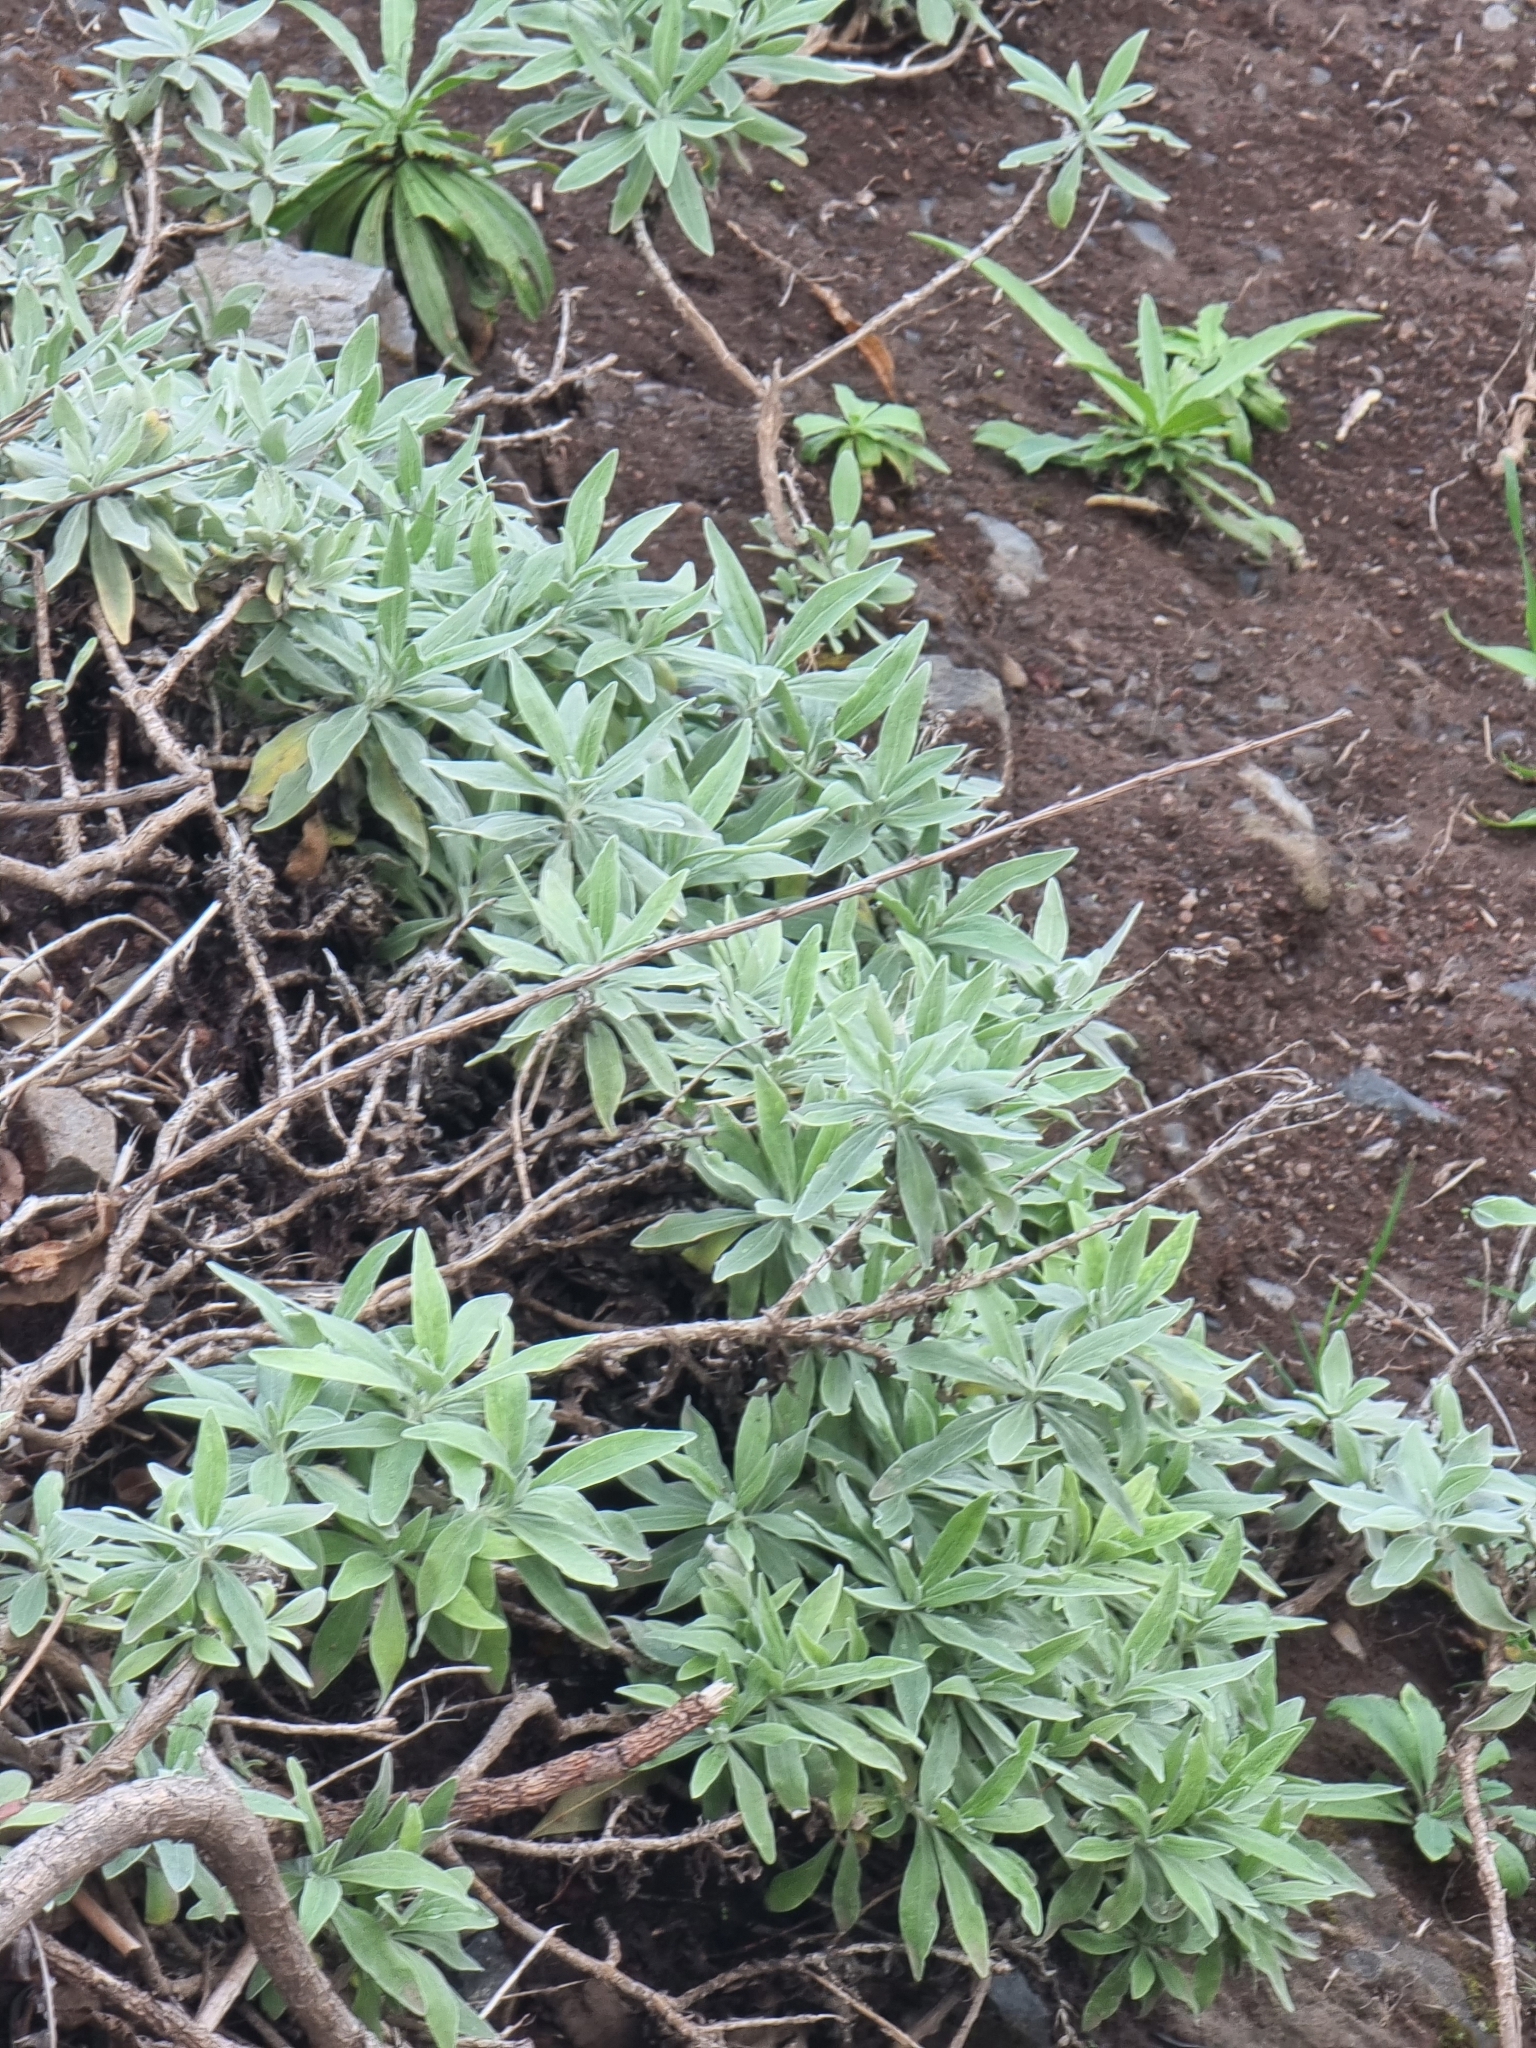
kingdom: Plantae
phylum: Tracheophyta
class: Magnoliopsida
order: Asterales
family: Asteraceae
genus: Helichrysum
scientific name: Helichrysum melaleucum
